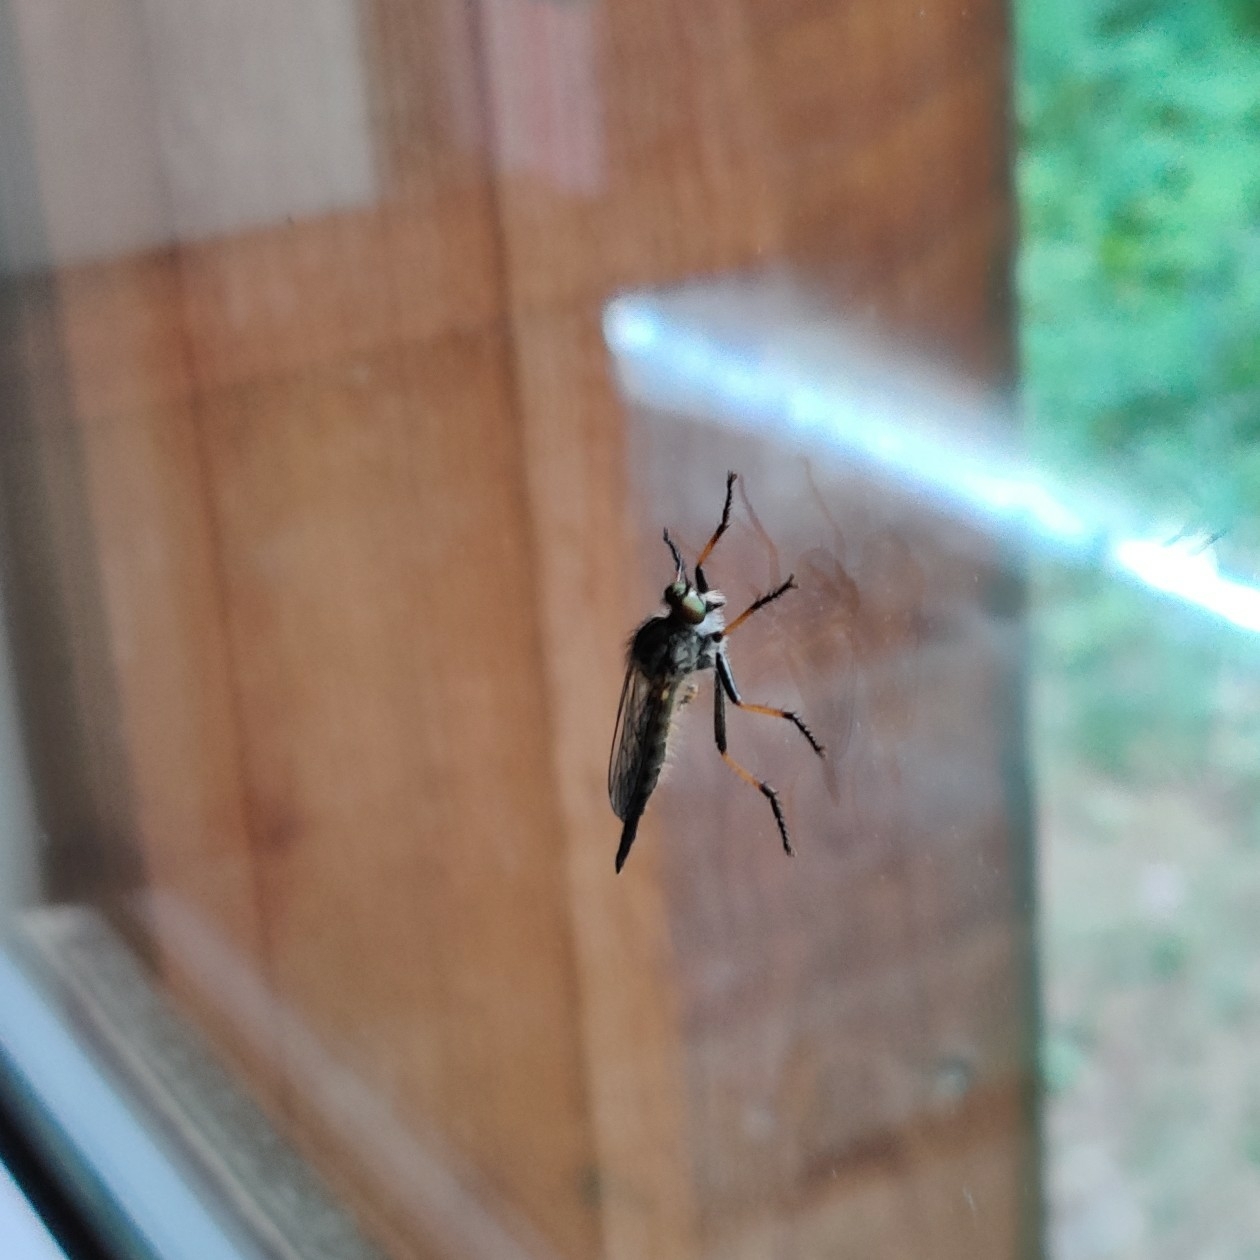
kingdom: Animalia
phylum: Arthropoda
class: Insecta
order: Diptera
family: Asilidae
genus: Neoitamus
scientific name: Neoitamus
